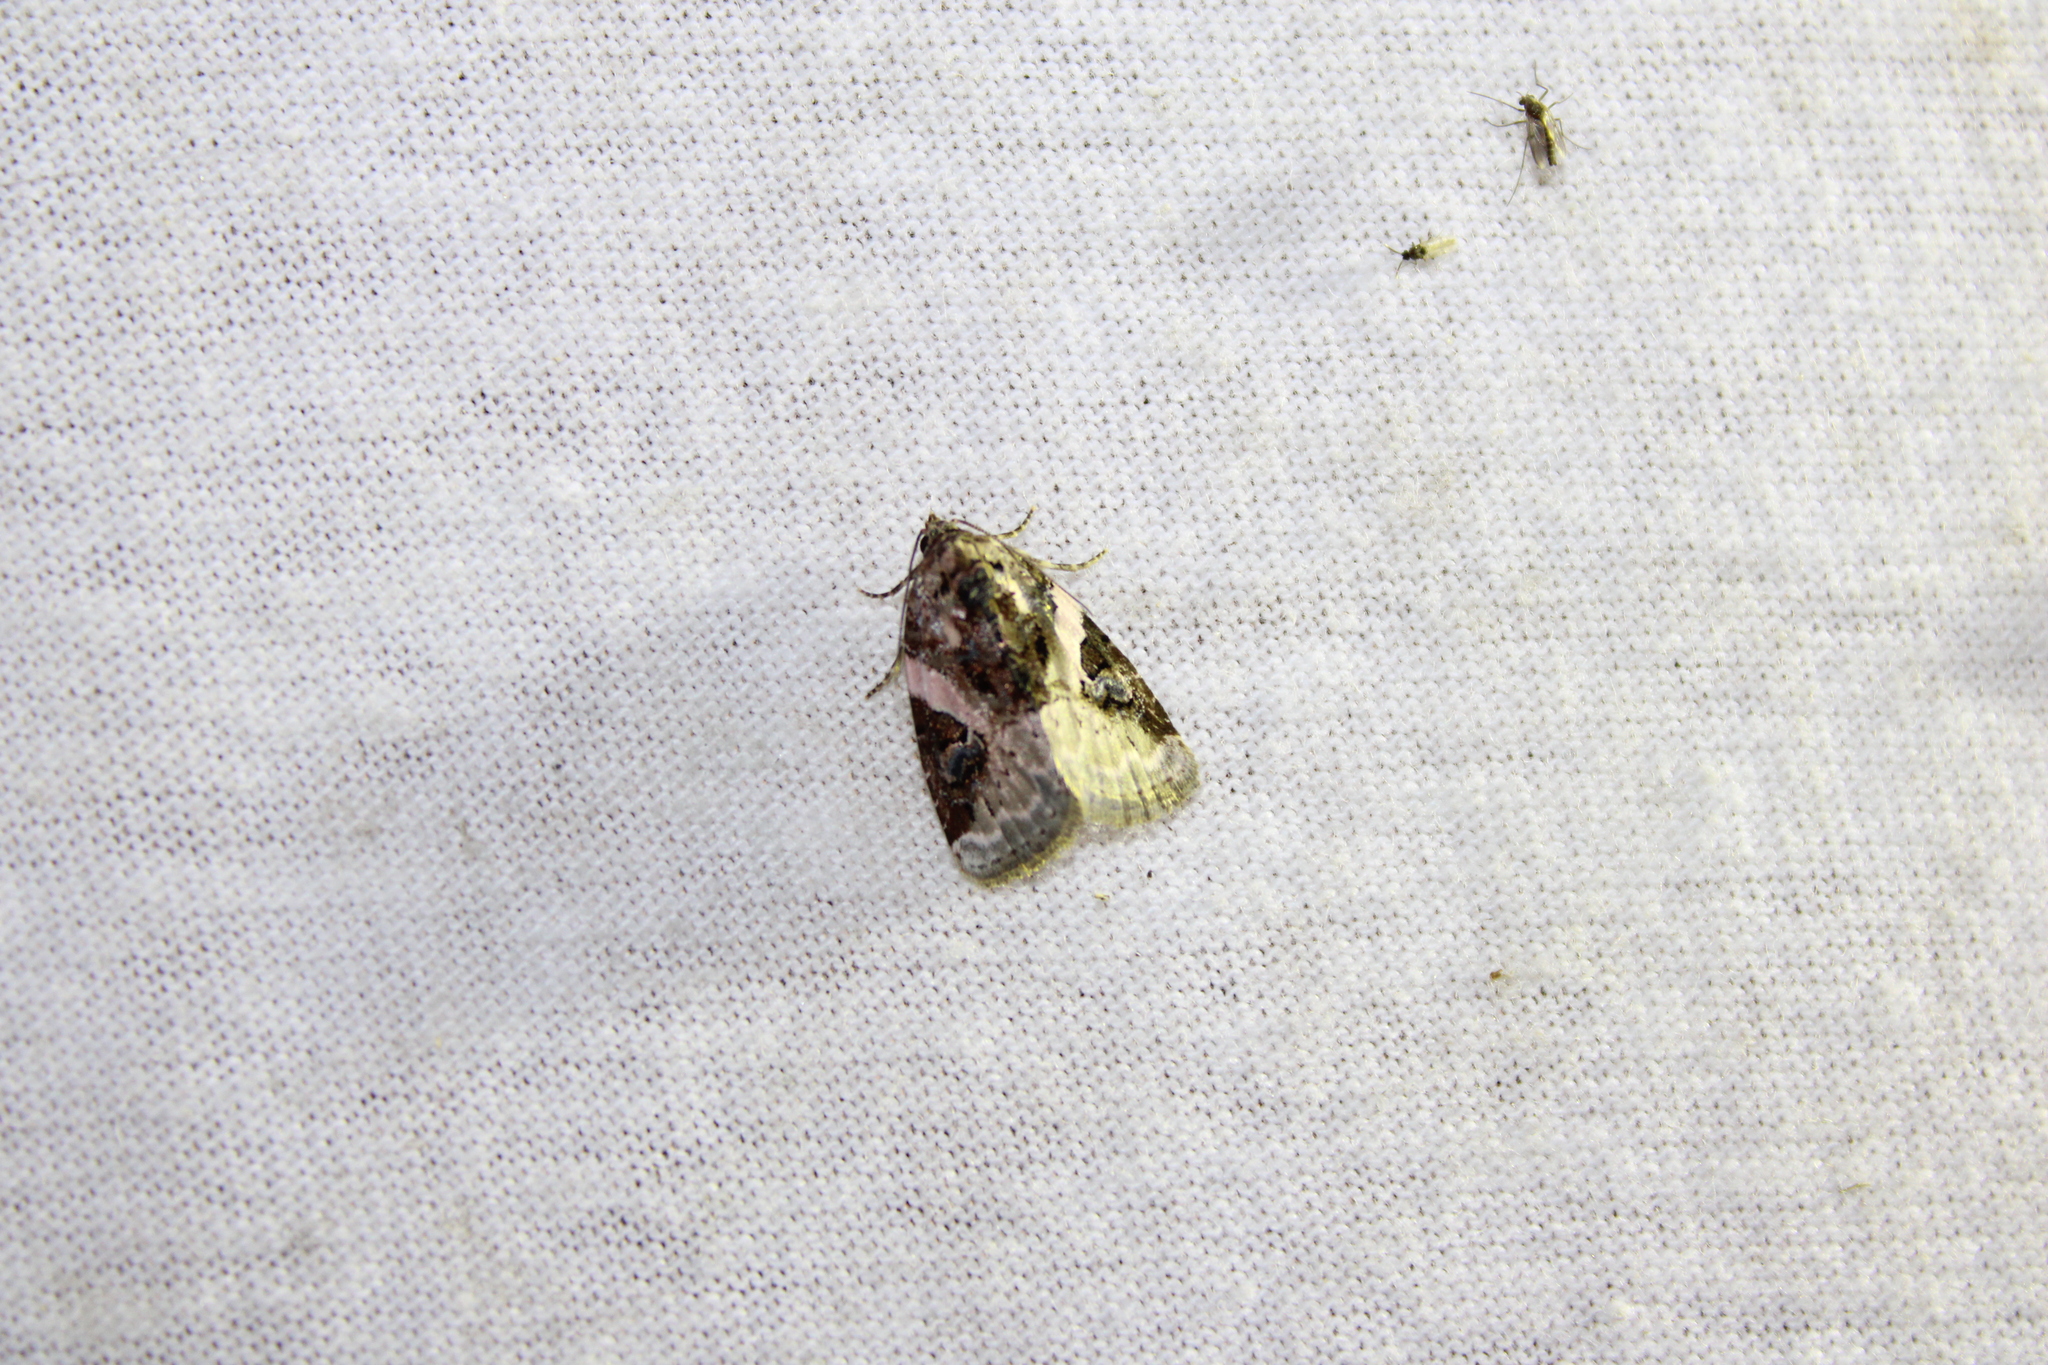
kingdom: Animalia
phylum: Arthropoda
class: Insecta
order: Lepidoptera
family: Noctuidae
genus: Pseudeustrotia
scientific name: Pseudeustrotia carneola
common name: Pink-barred lithacodia moth
